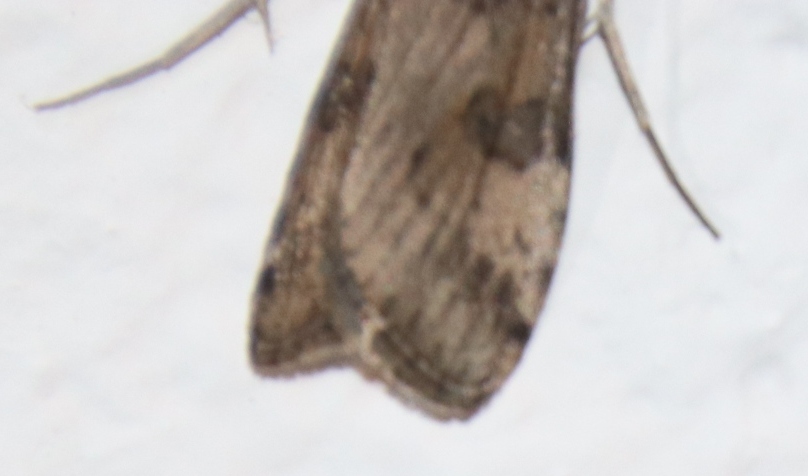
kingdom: Animalia
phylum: Arthropoda
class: Insecta
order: Lepidoptera
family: Crambidae
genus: Nomophila
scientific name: Nomophila noctuella
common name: Rush veneer
